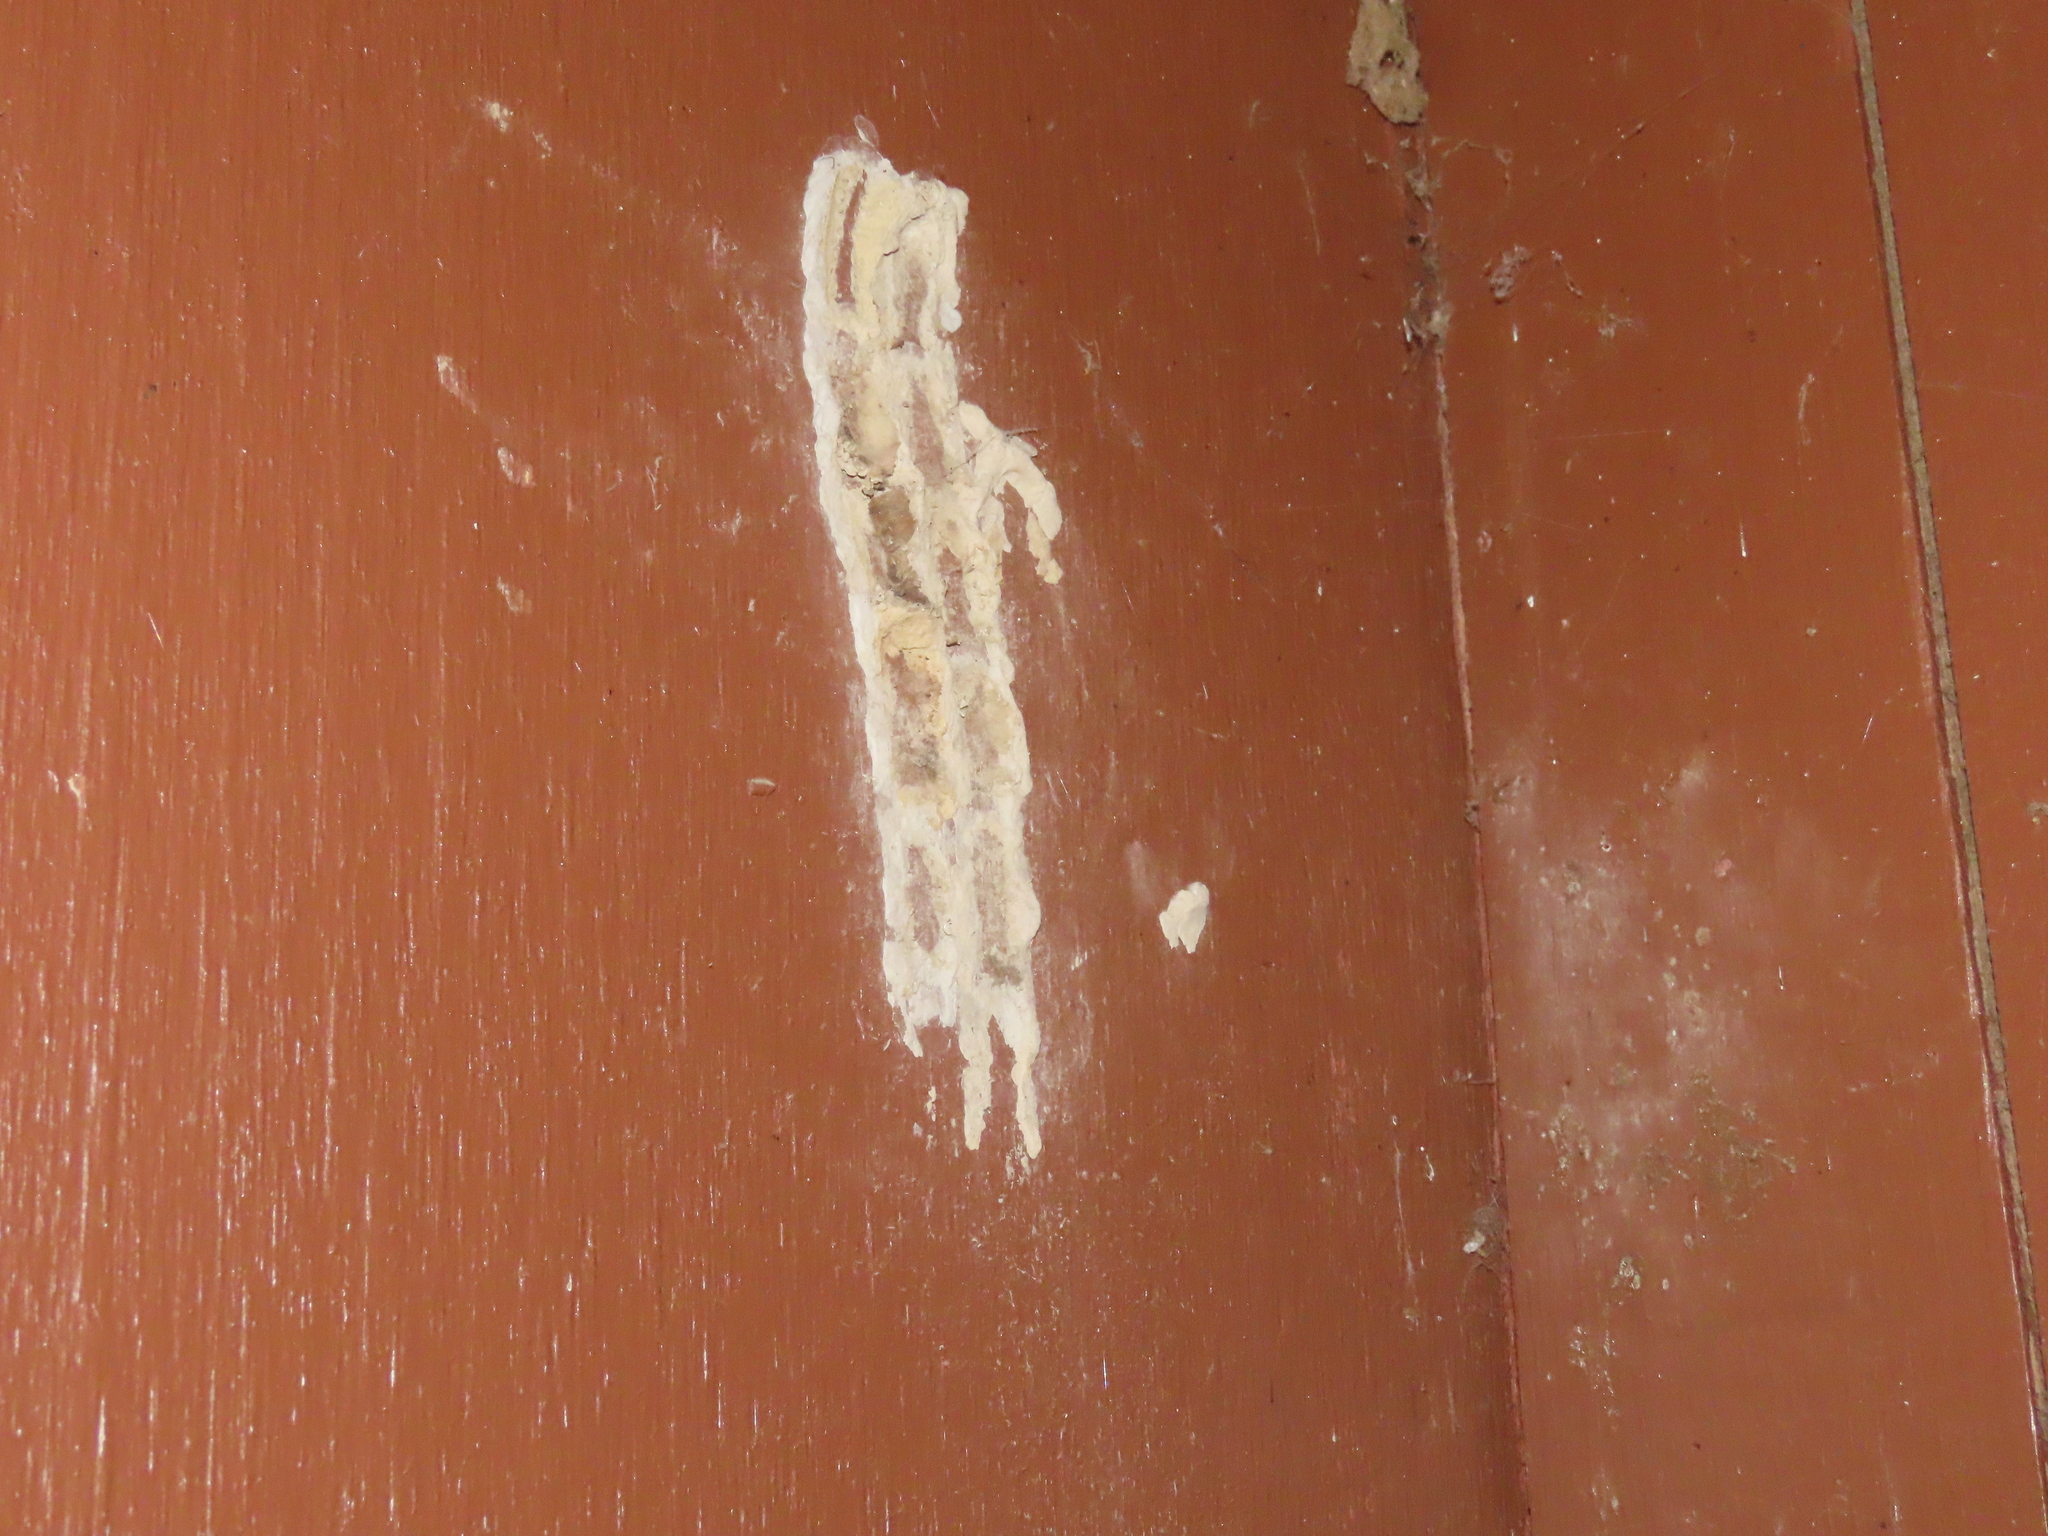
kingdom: Animalia
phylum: Arthropoda
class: Insecta
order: Hymenoptera
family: Crabronidae
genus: Trypoxylon
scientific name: Trypoxylon politum
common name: Organ-pipe mud-dauber wasp
